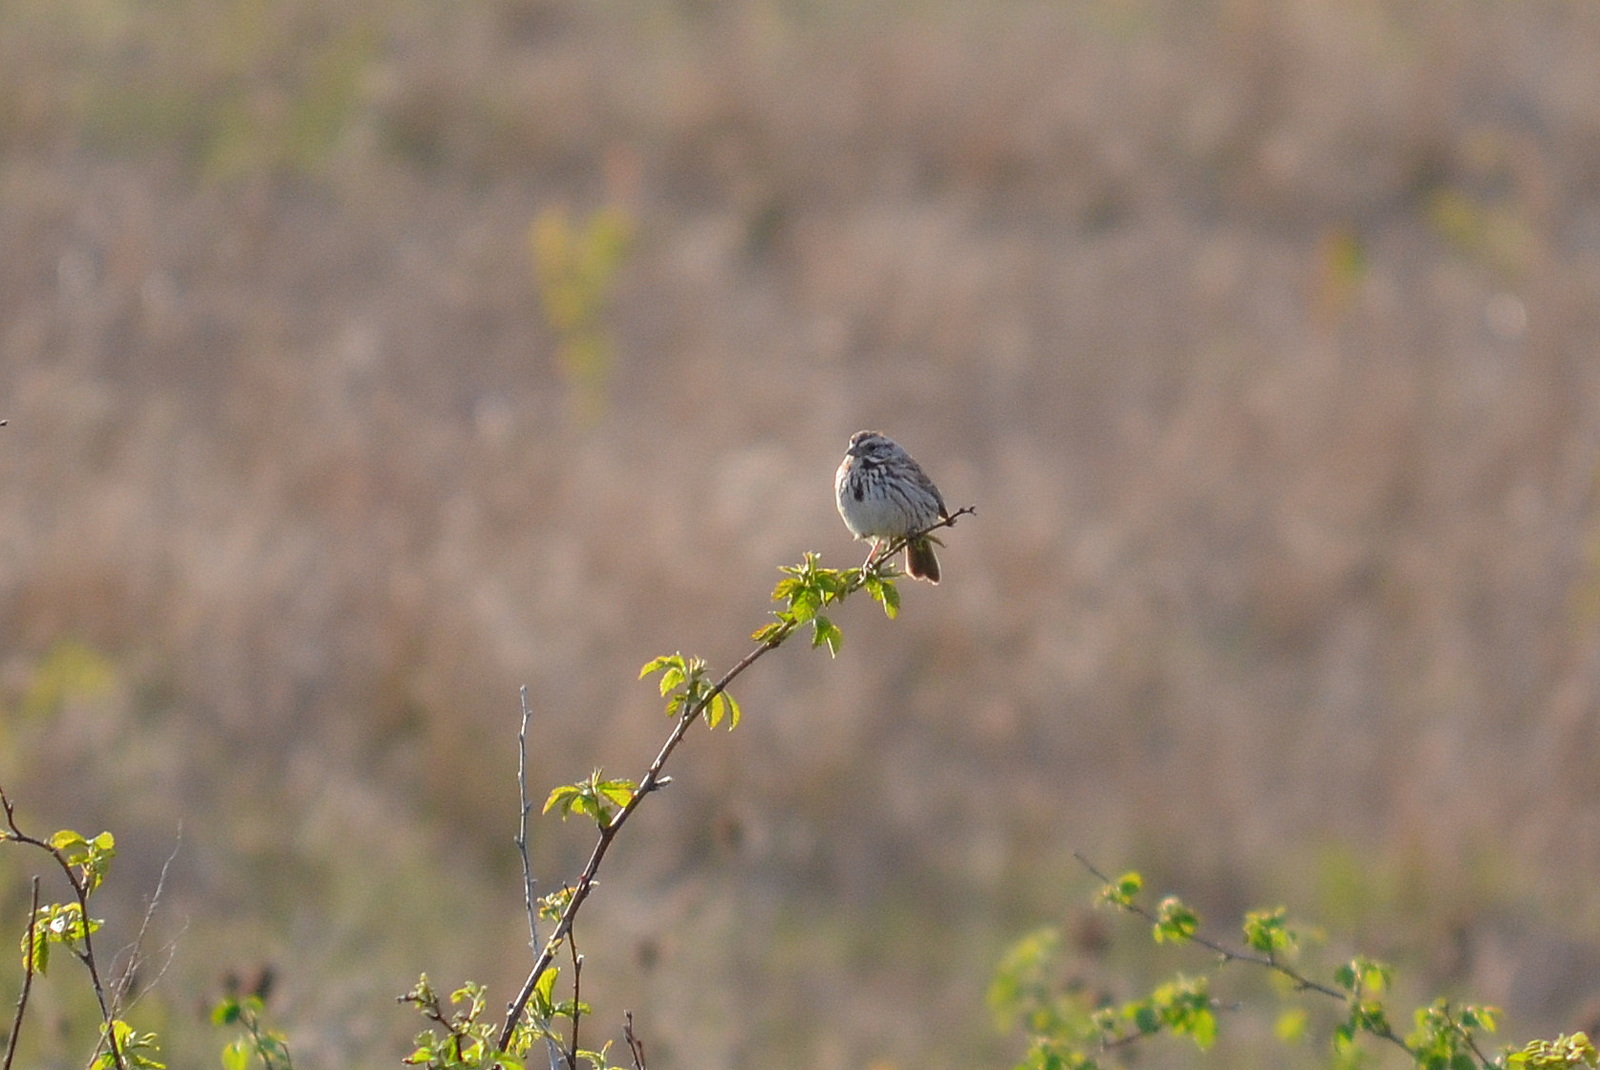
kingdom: Animalia
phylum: Chordata
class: Aves
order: Passeriformes
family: Passerellidae
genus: Melospiza
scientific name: Melospiza melodia
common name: Song sparrow
